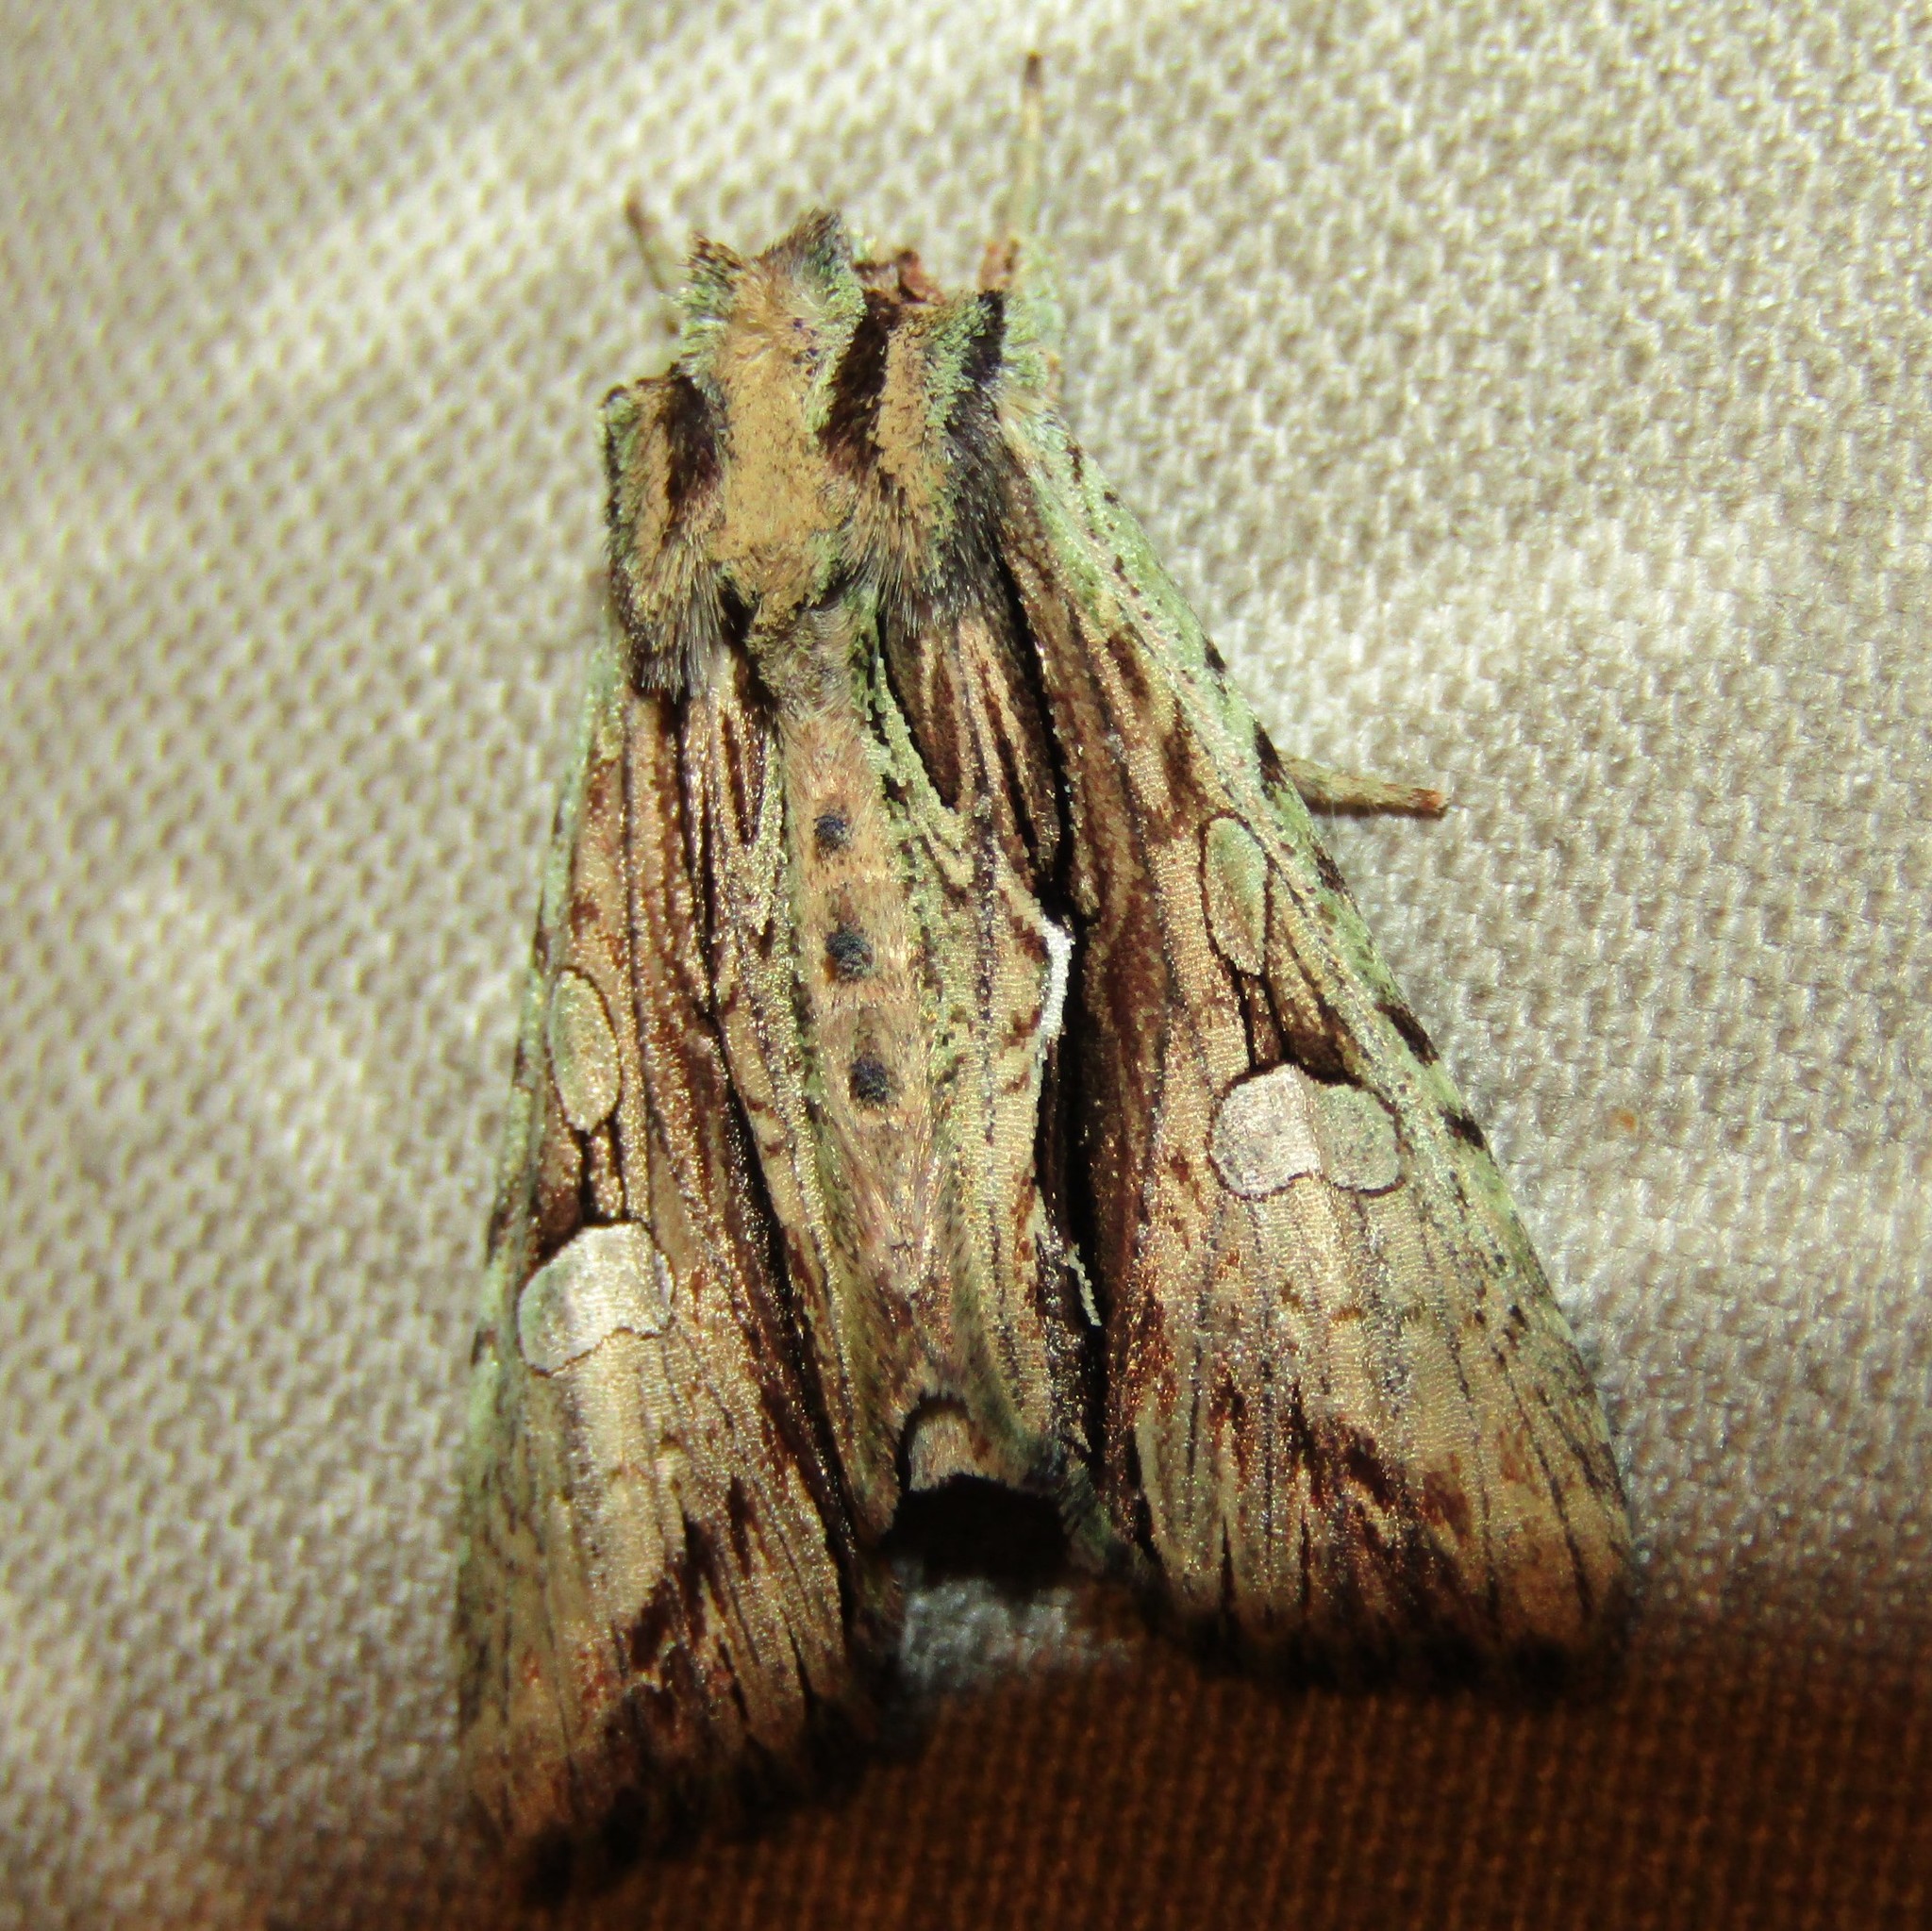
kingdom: Animalia
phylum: Arthropoda
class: Insecta
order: Lepidoptera
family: Noctuidae
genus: Meterana
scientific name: Meterana decorata
